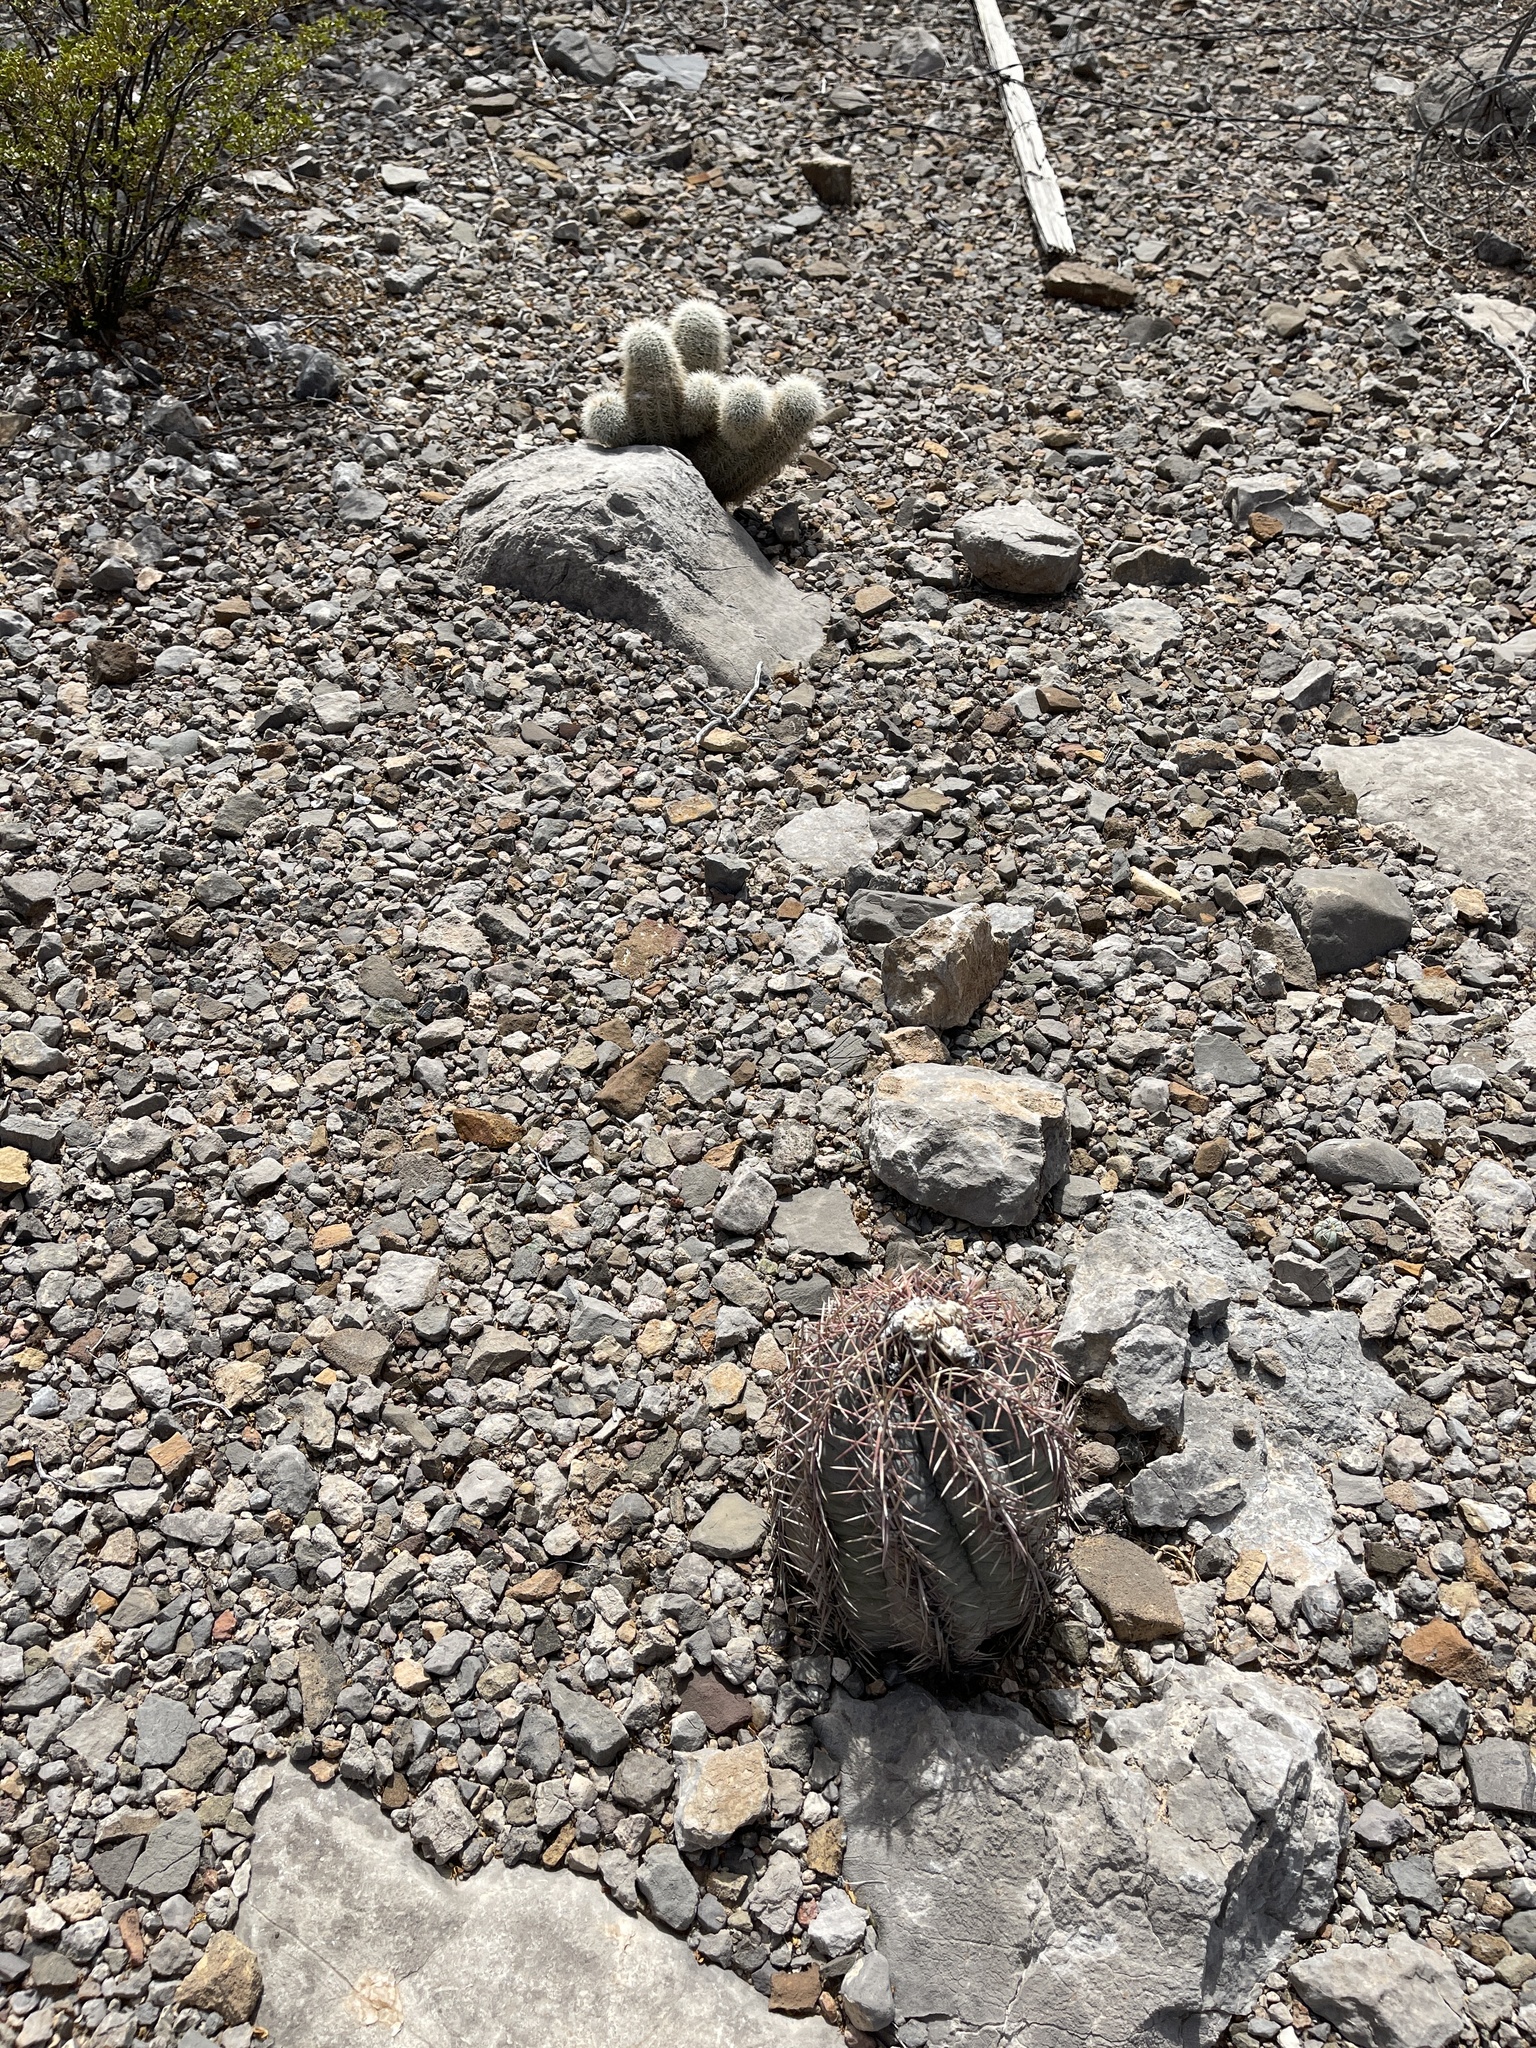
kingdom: Plantae
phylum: Tracheophyta
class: Magnoliopsida
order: Caryophyllales
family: Cactaceae
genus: Echinocereus
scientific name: Echinocereus dasyacanthus
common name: Spiny hedgehog cactus
